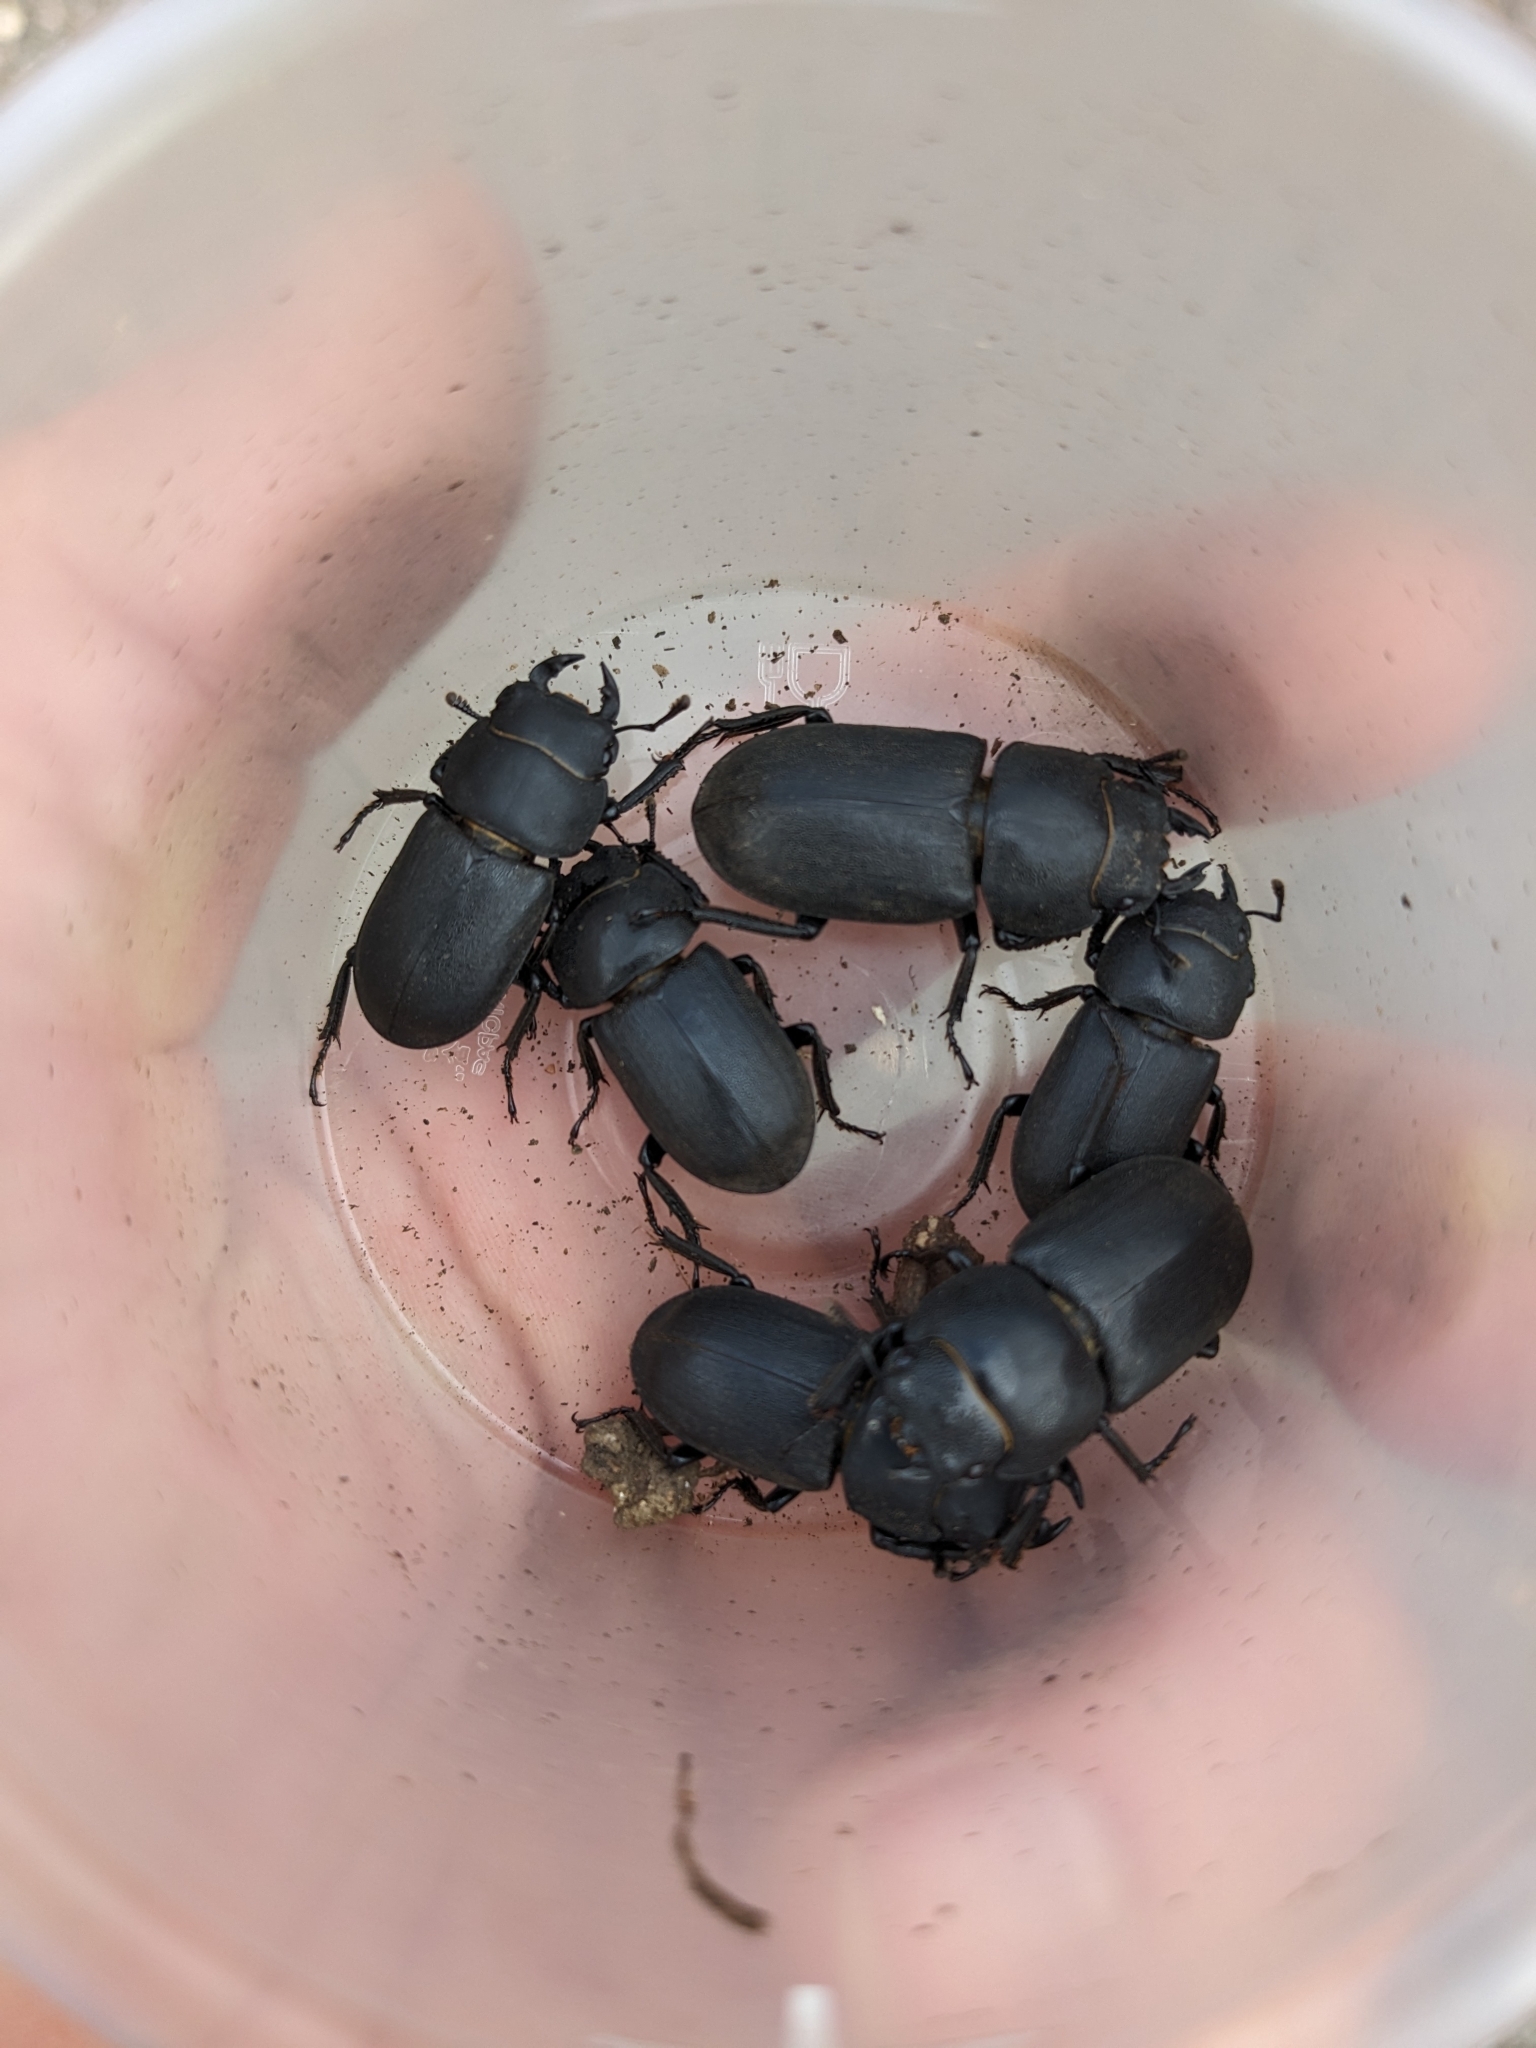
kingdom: Animalia
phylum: Arthropoda
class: Insecta
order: Coleoptera
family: Lucanidae
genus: Dorcus
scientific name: Dorcus parallelipipedus
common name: Lesser stag beetle
